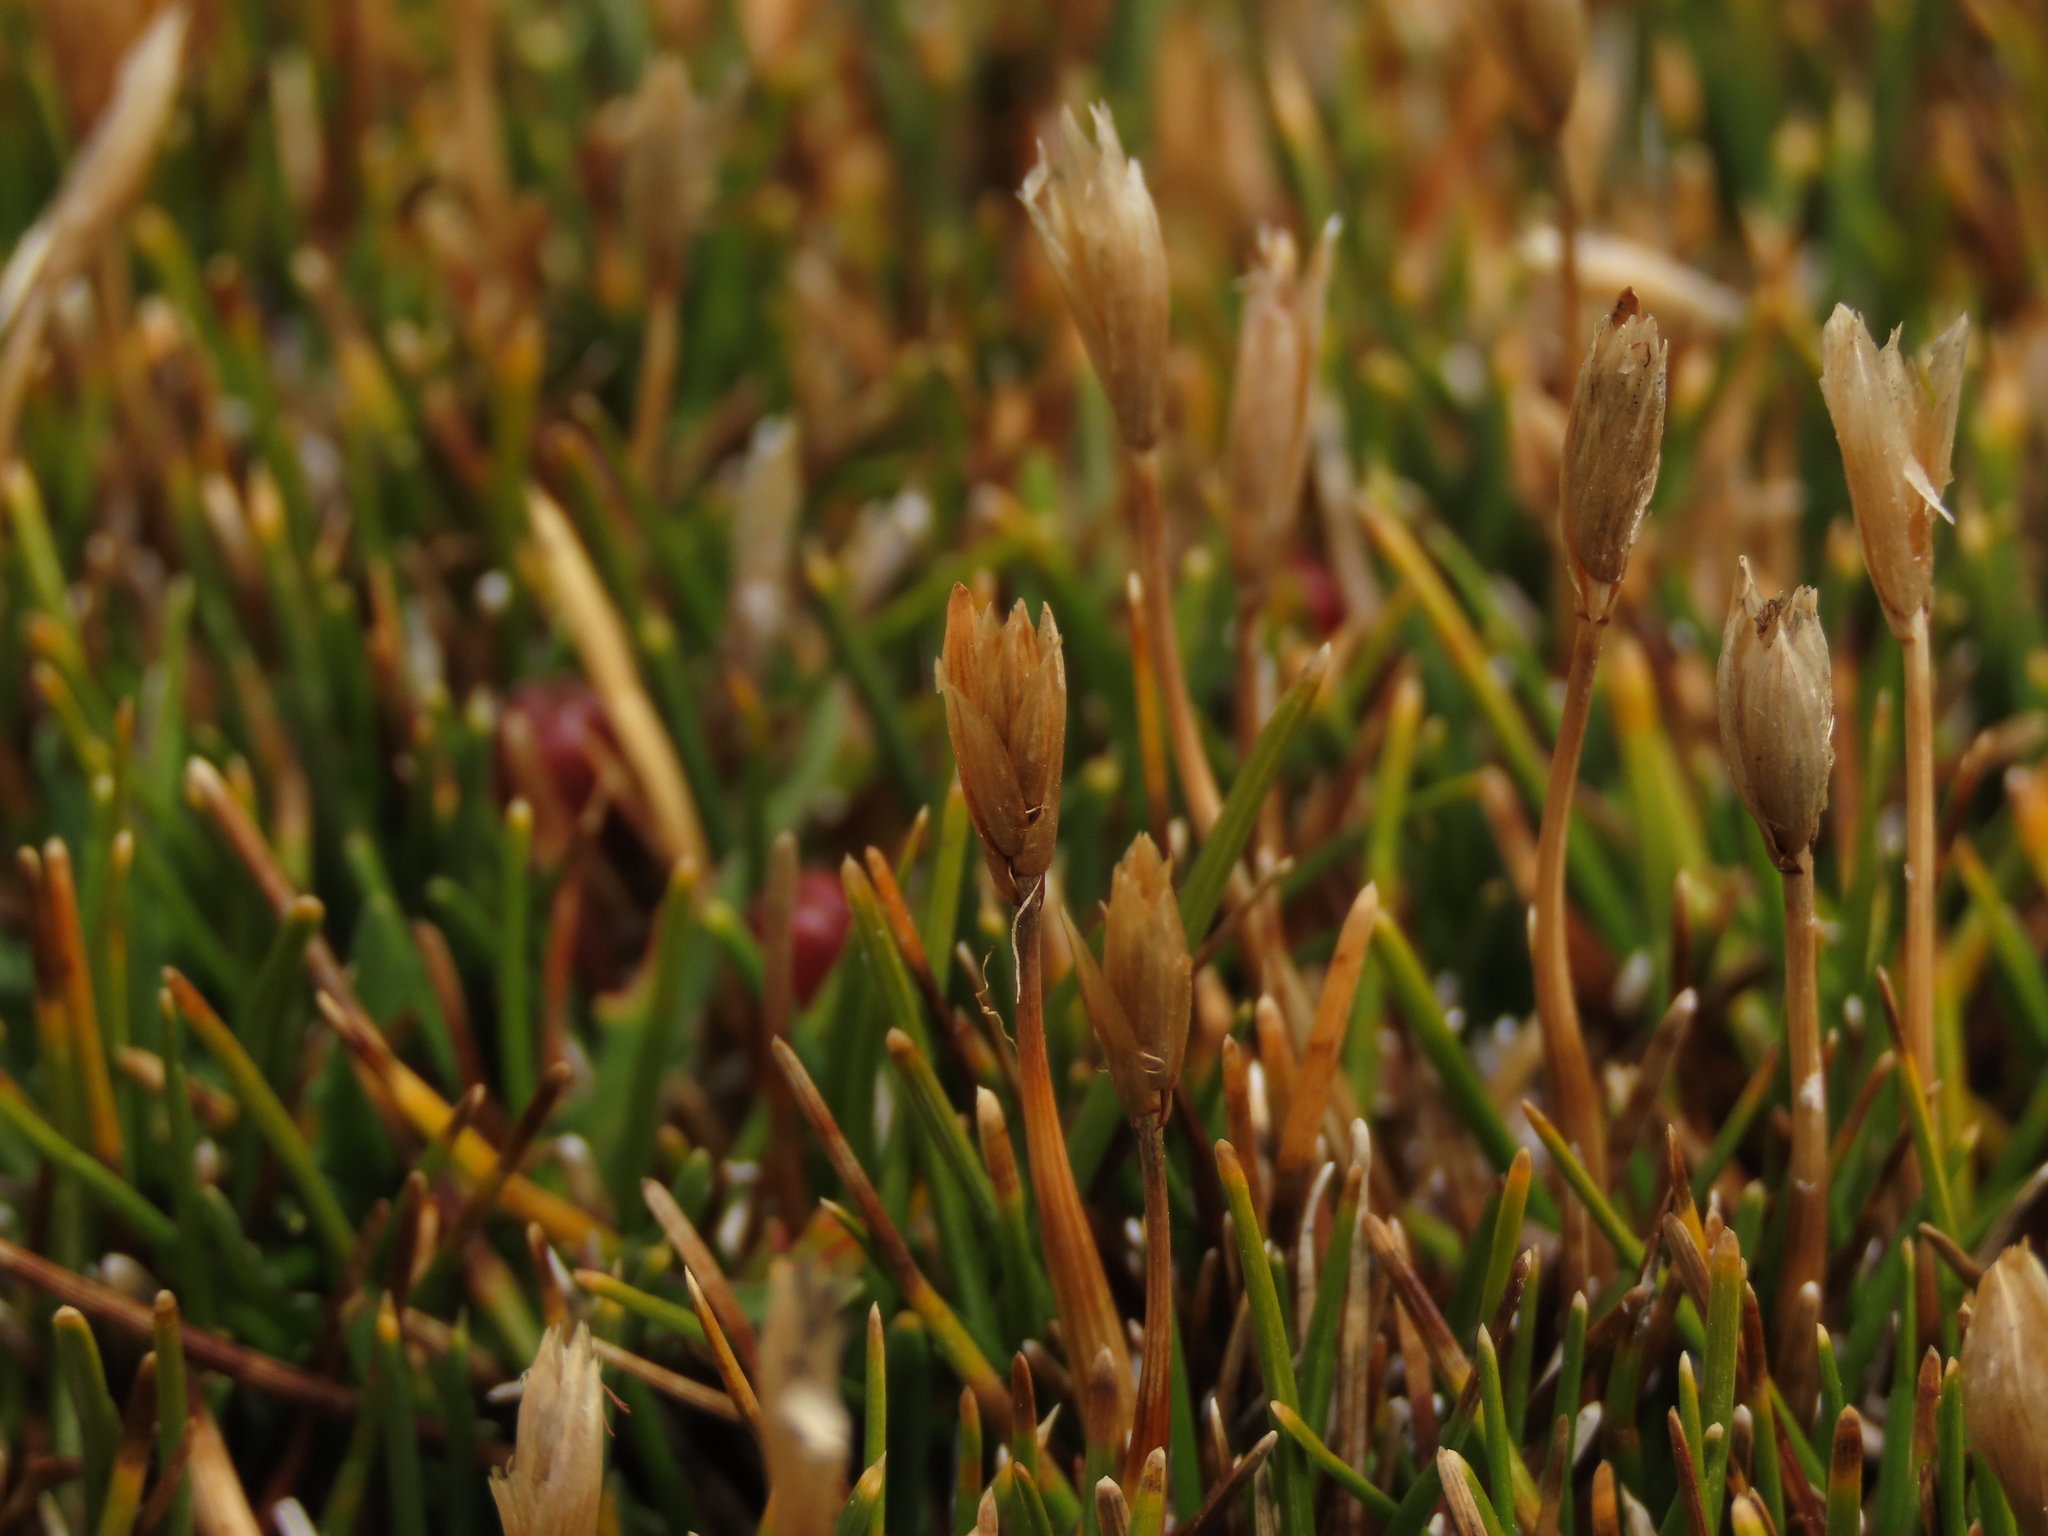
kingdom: Plantae
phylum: Tracheophyta
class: Liliopsida
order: Poales
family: Cyperaceae
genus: Zameioscirpus
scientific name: Zameioscirpus atacamensis
